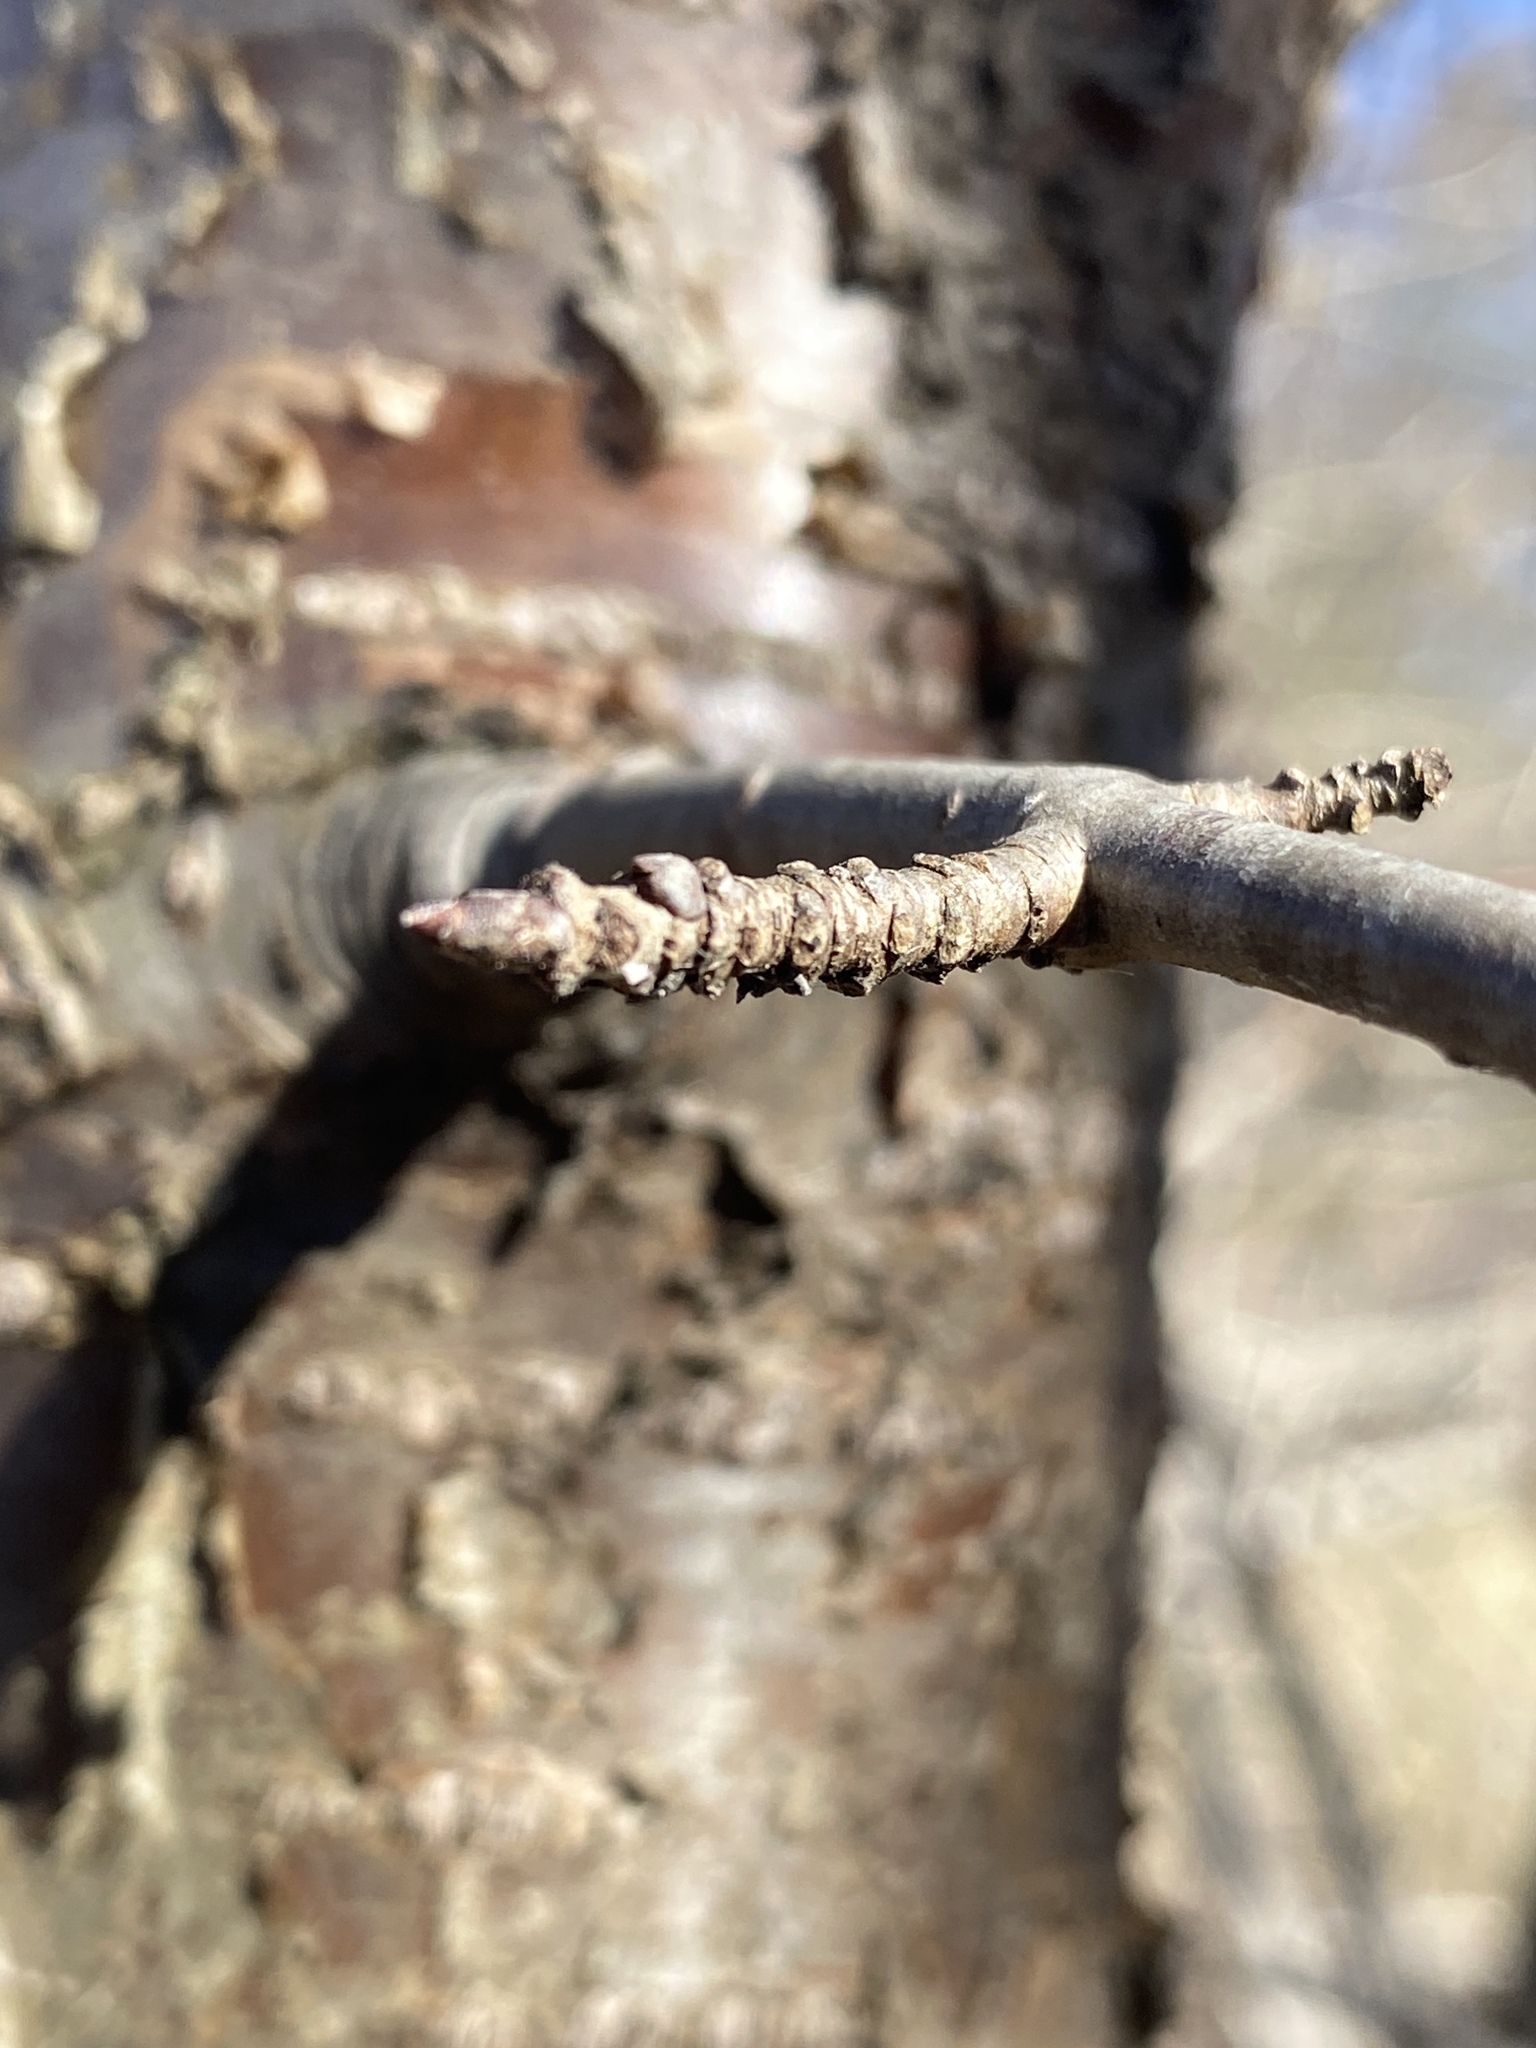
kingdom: Plantae
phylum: Tracheophyta
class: Magnoliopsida
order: Rosales
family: Rhamnaceae
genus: Rhamnus
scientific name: Rhamnus cathartica
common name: Common buckthorn
